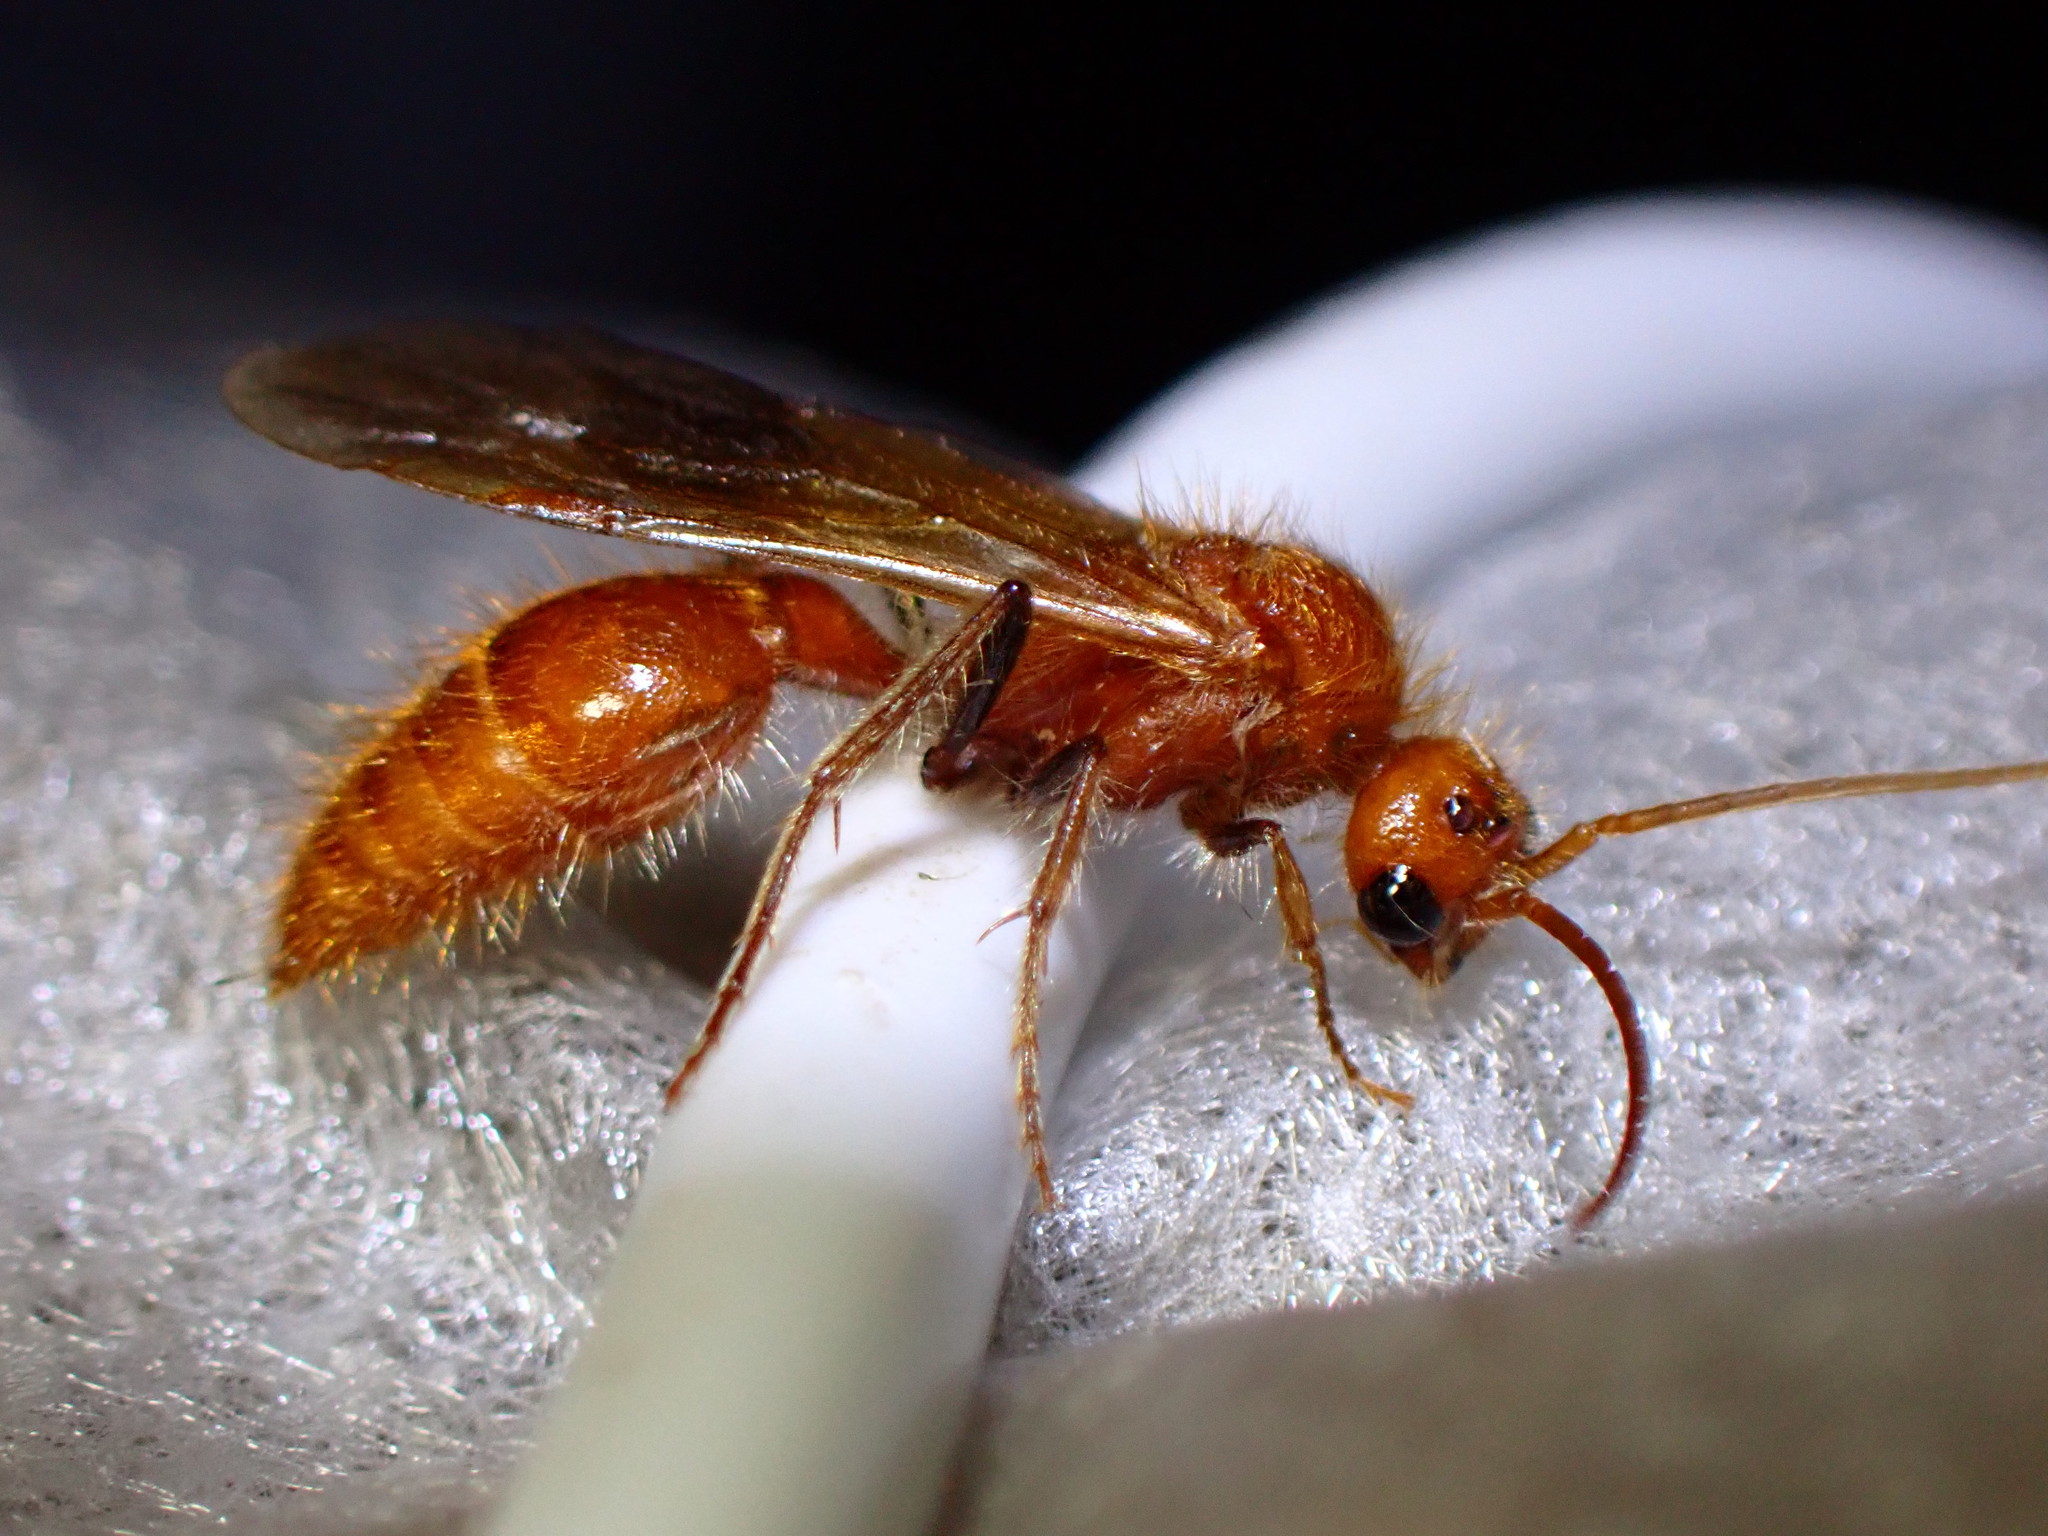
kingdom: Animalia
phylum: Arthropoda
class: Insecta
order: Hymenoptera
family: Mutillidae
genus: Sphaeropthalma
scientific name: Sphaeropthalma unicolor
